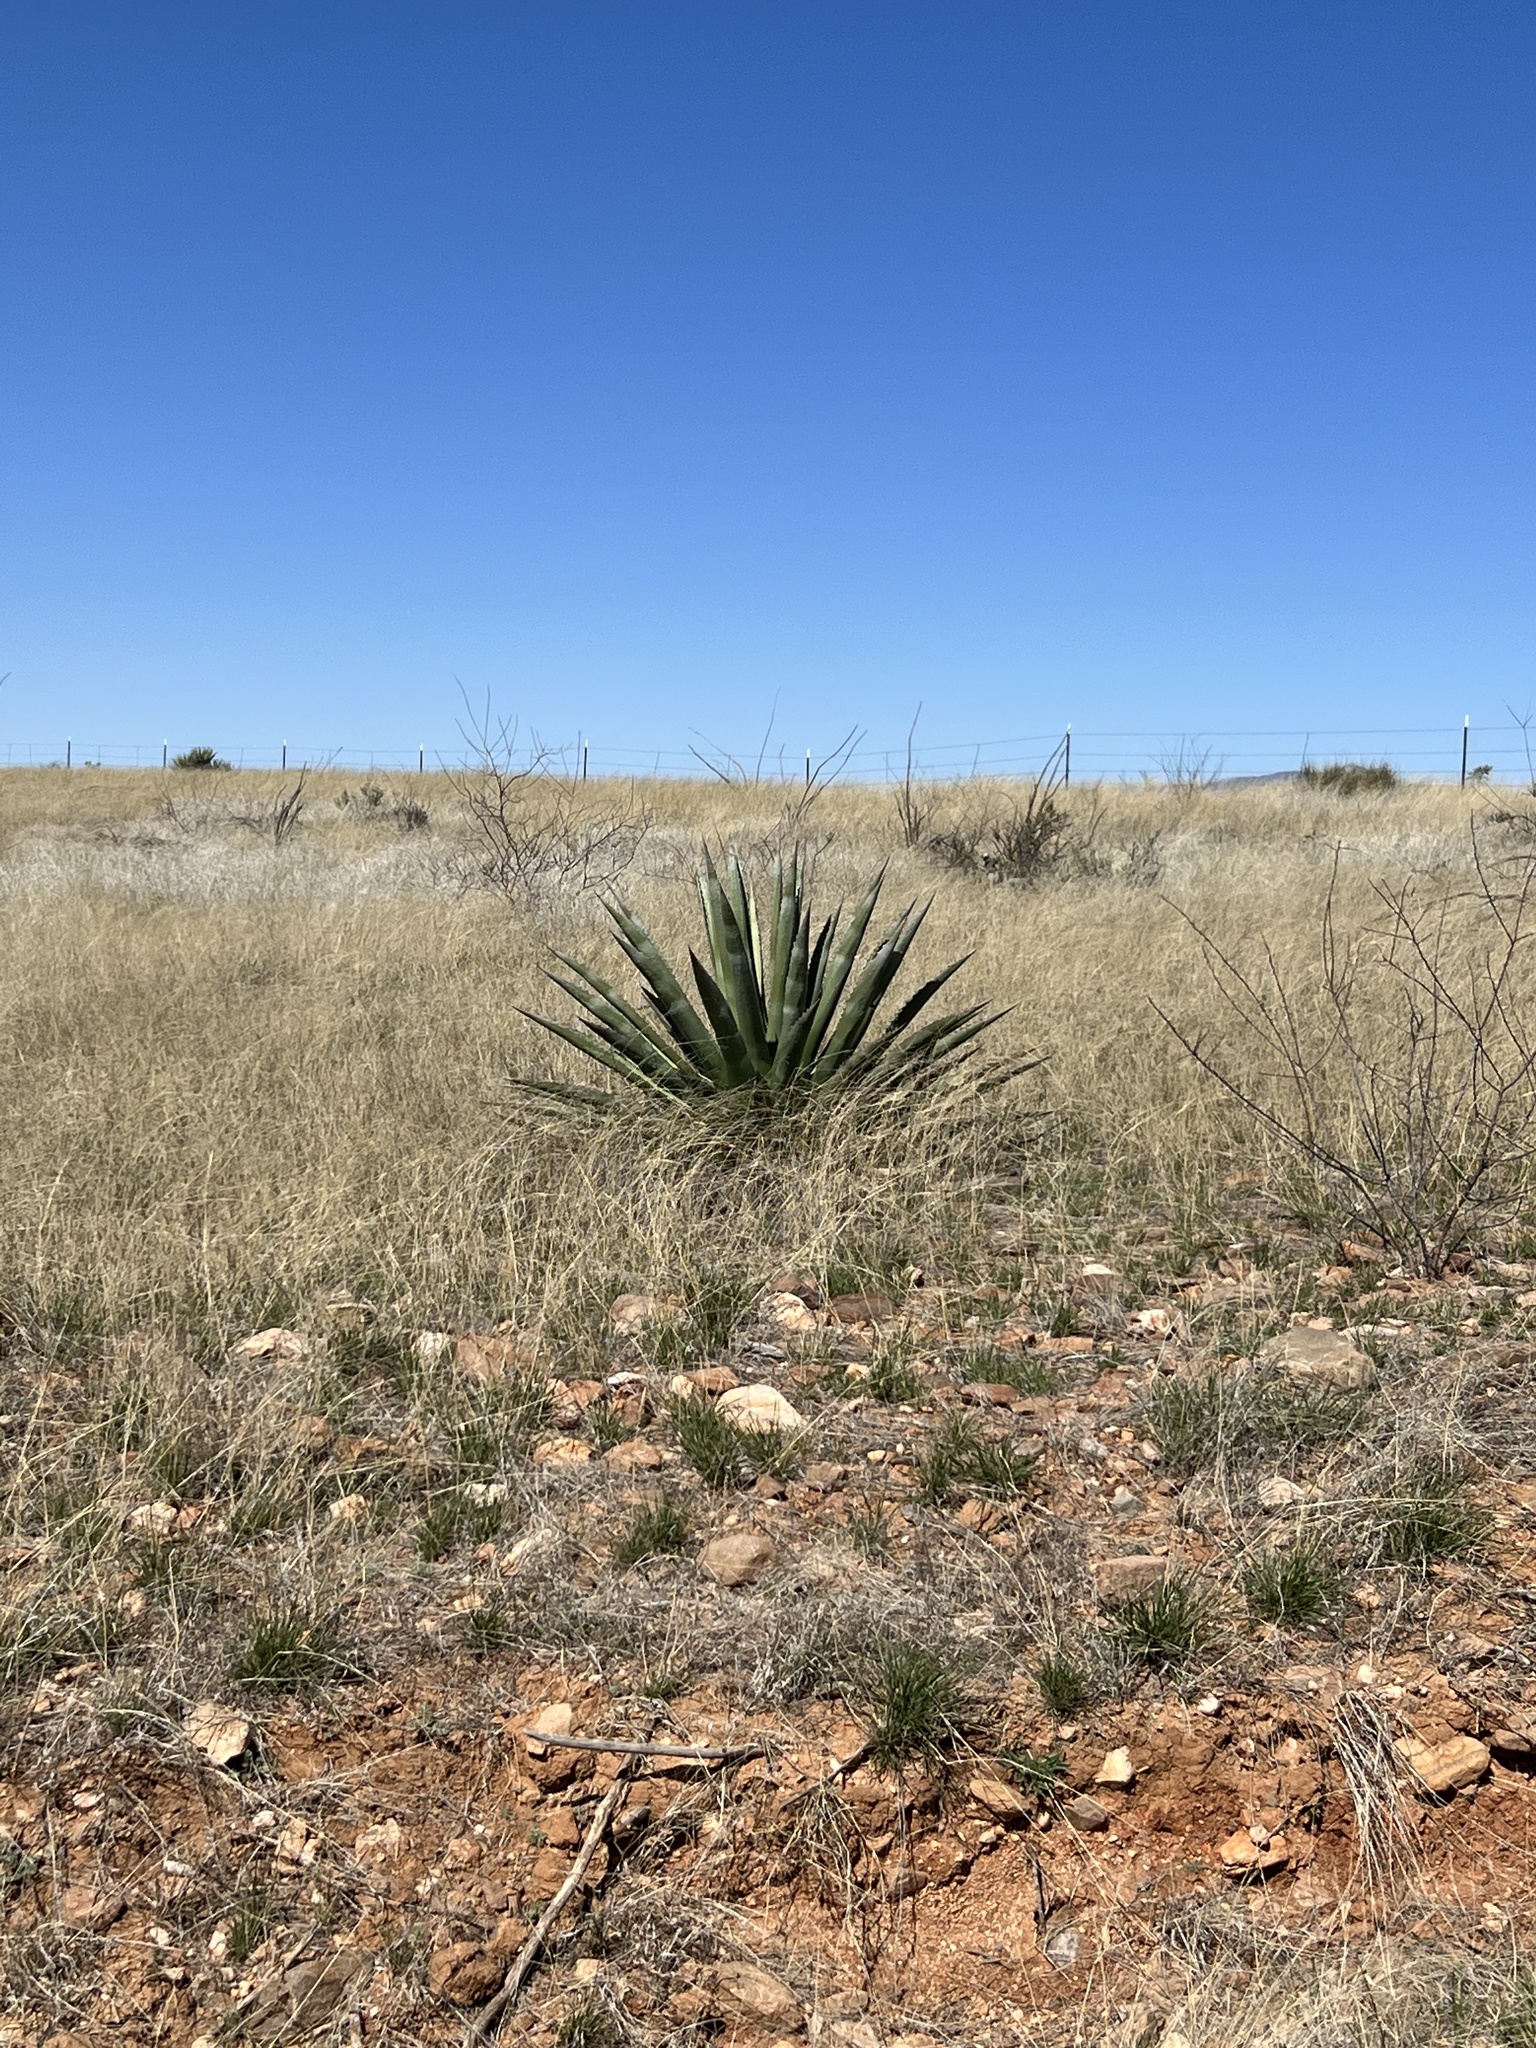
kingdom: Plantae
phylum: Tracheophyta
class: Liliopsida
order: Asparagales
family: Asparagaceae
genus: Agave
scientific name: Agave palmeri
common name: Palmer agave
